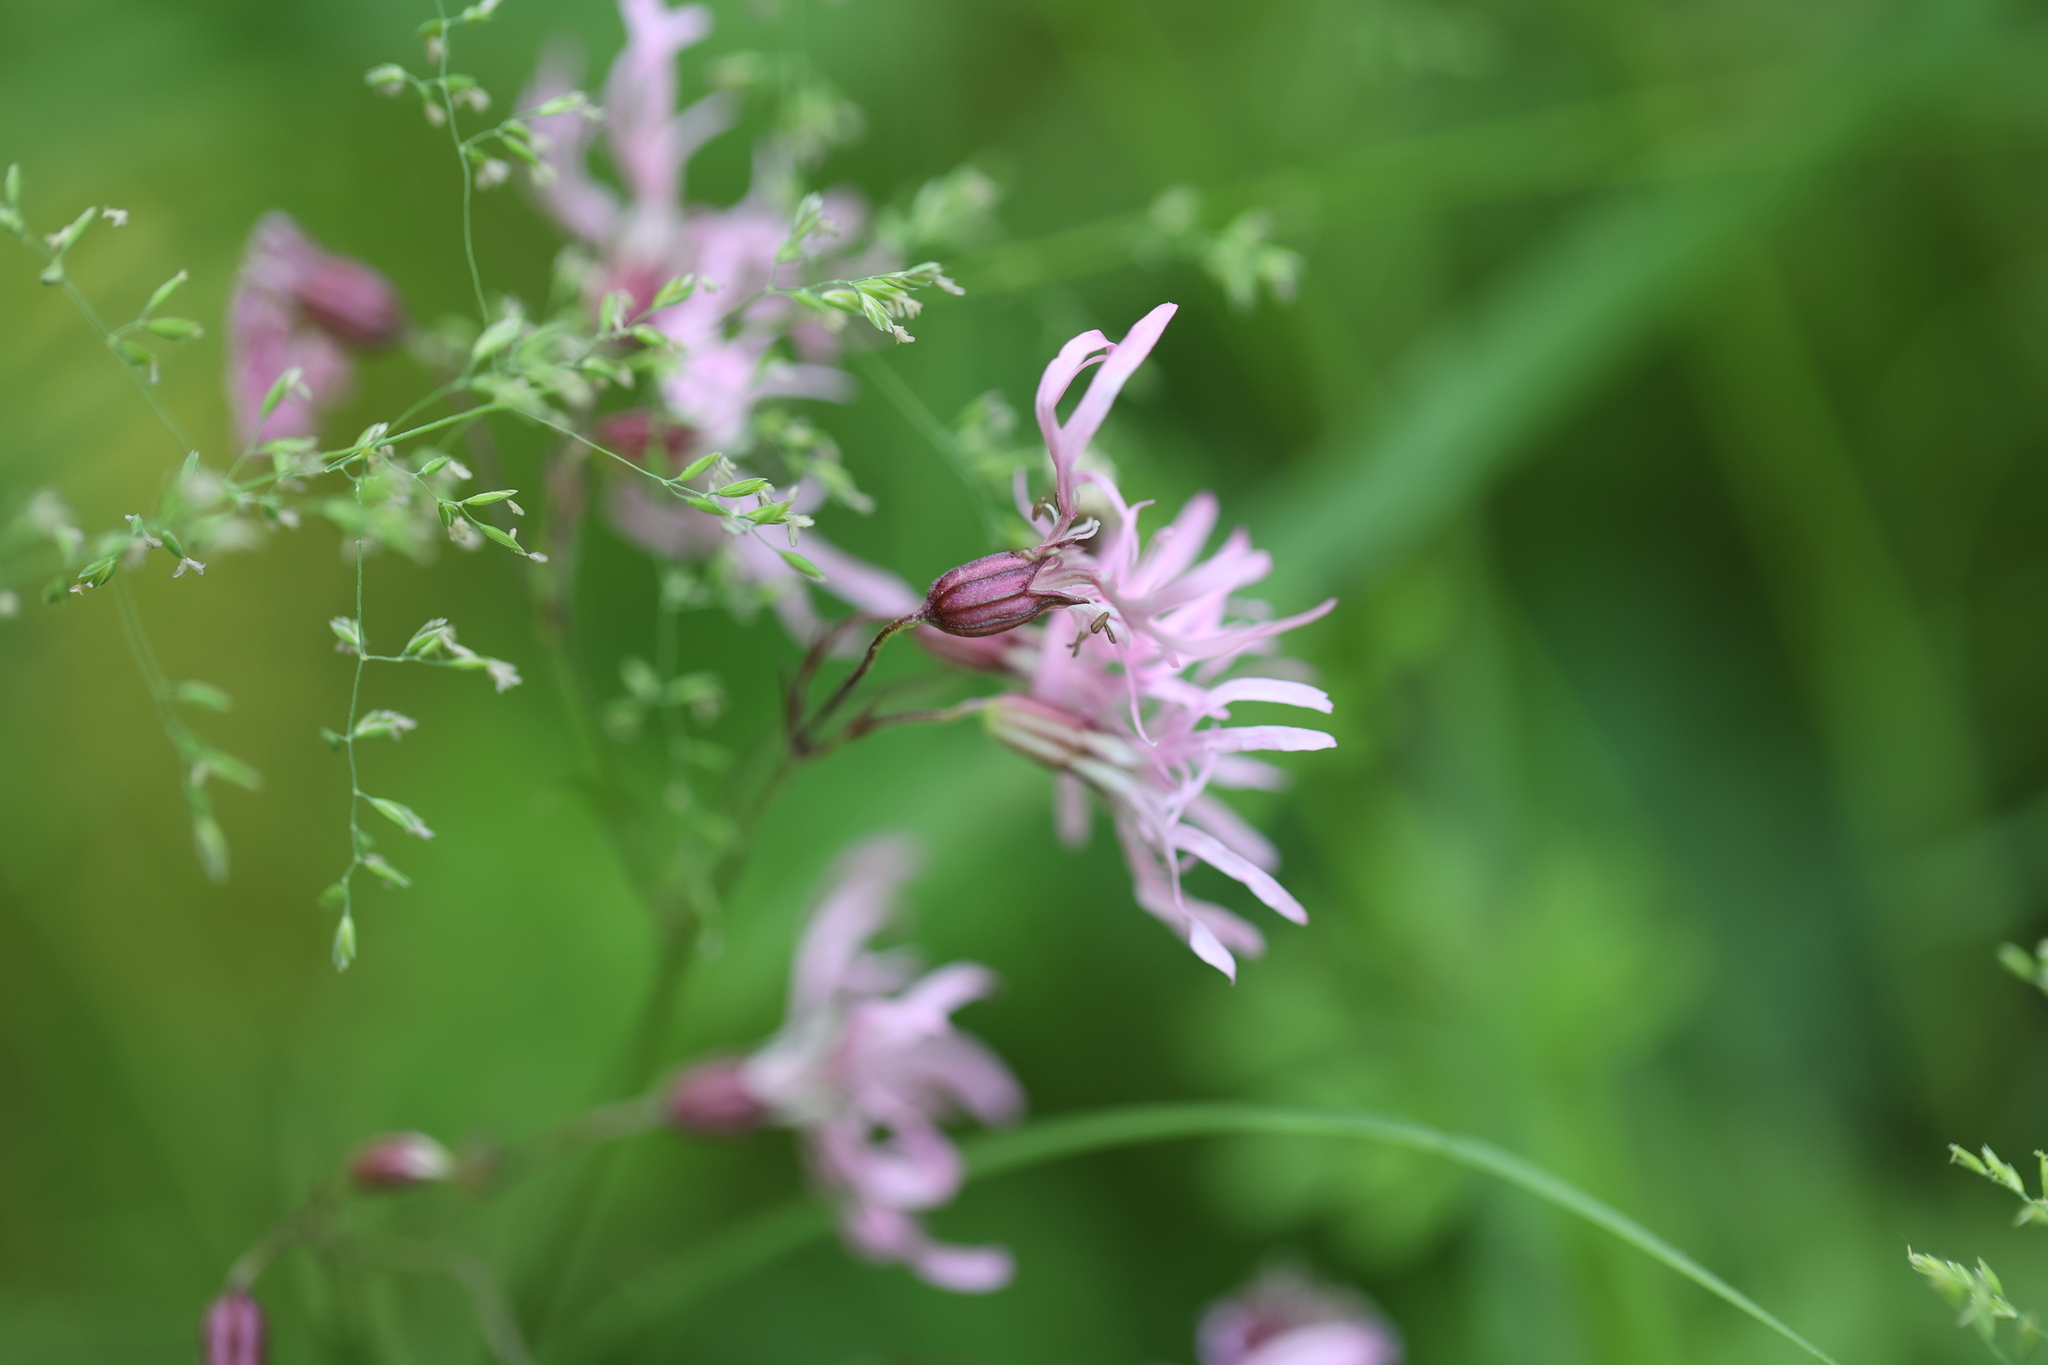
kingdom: Plantae
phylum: Tracheophyta
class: Magnoliopsida
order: Caryophyllales
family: Caryophyllaceae
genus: Silene
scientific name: Silene flos-cuculi
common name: Ragged-robin
